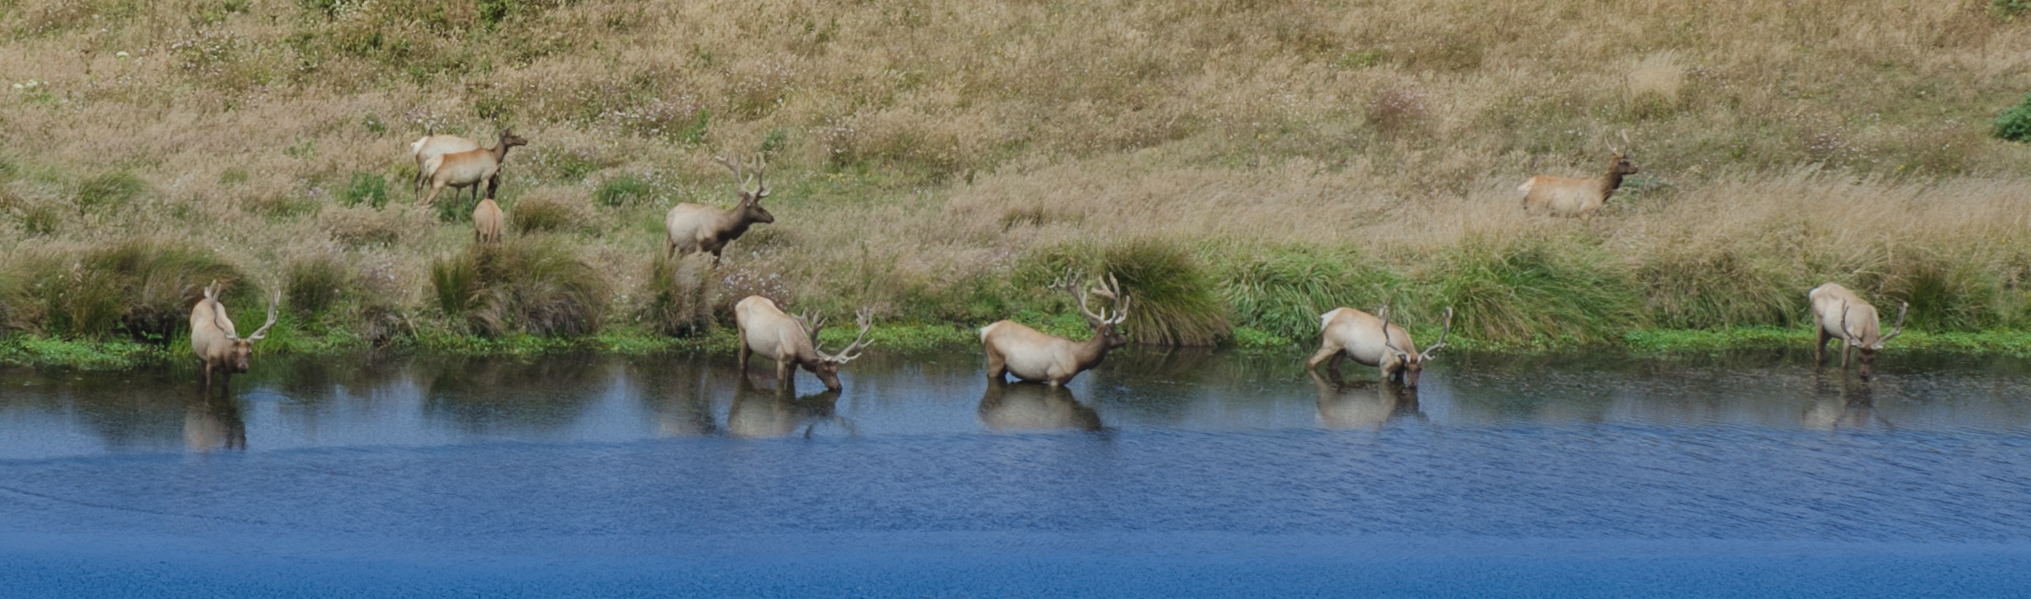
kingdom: Animalia
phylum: Chordata
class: Mammalia
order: Artiodactyla
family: Cervidae
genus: Cervus
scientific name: Cervus elaphus
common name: Red deer
